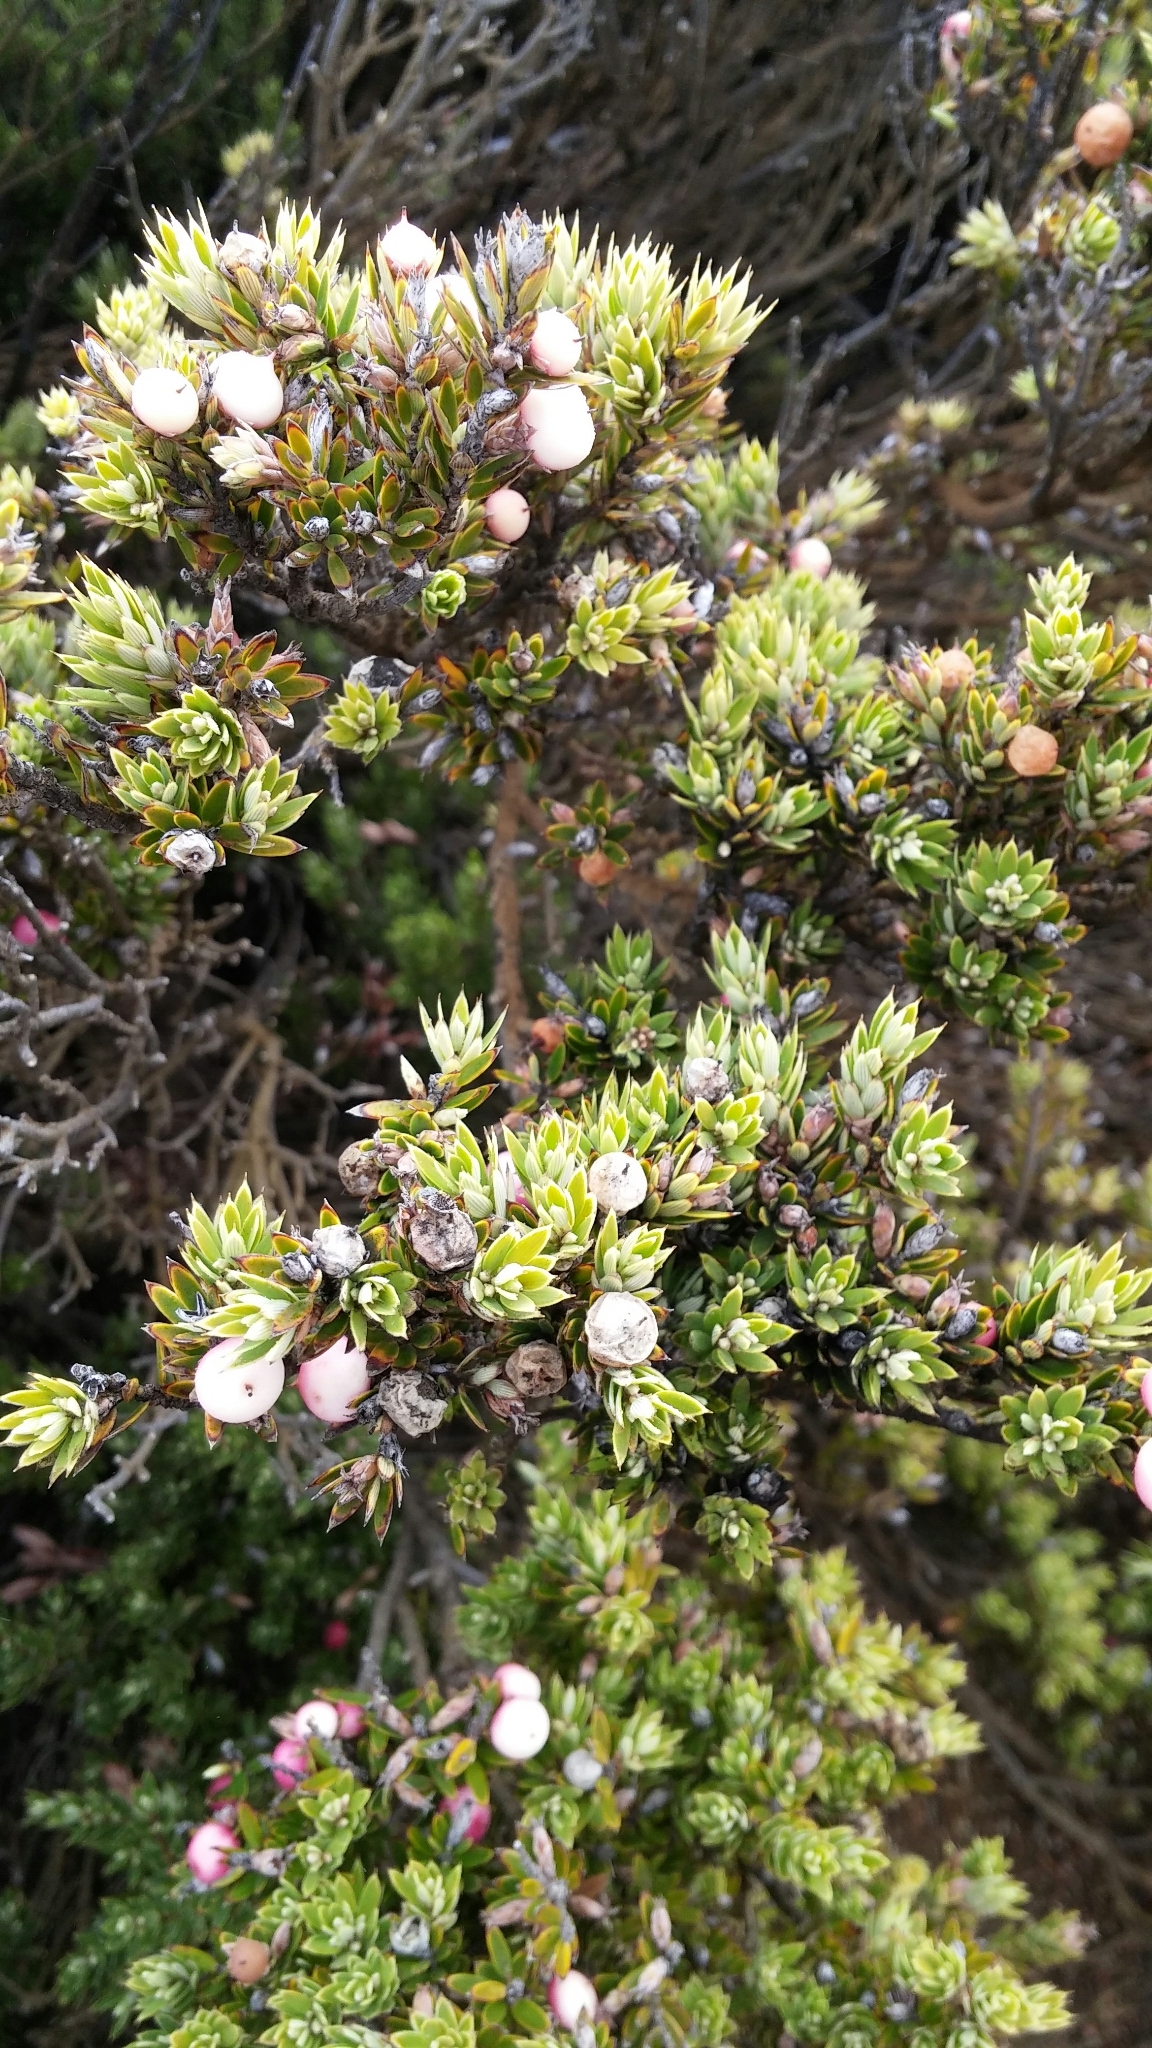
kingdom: Plantae
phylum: Tracheophyta
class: Magnoliopsida
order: Ericales
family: Ericaceae
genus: Leptecophylla
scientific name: Leptecophylla tameiameiae
